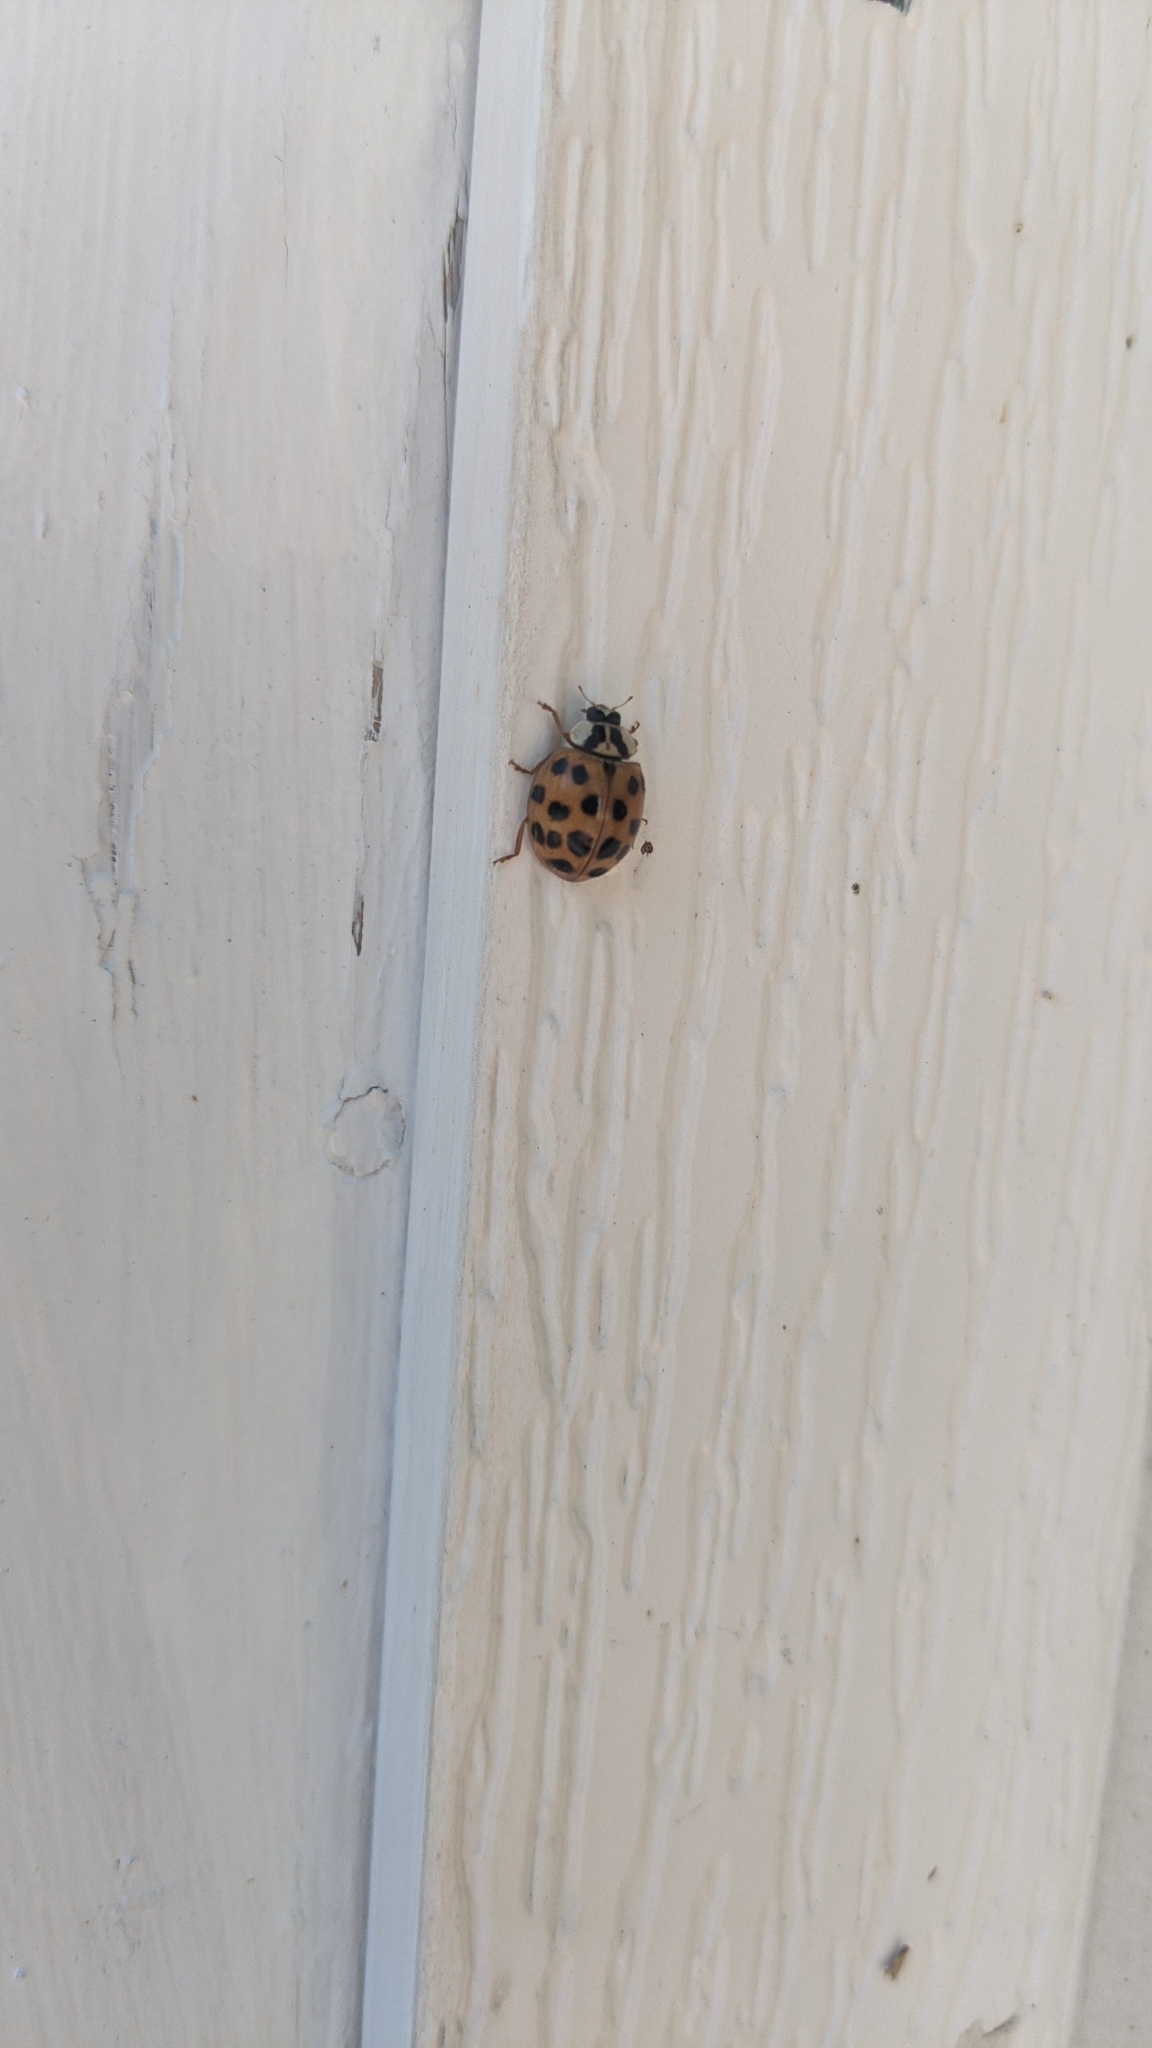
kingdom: Animalia
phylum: Arthropoda
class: Insecta
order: Coleoptera
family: Coccinellidae
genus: Harmonia
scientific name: Harmonia axyridis
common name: Harlequin ladybird
